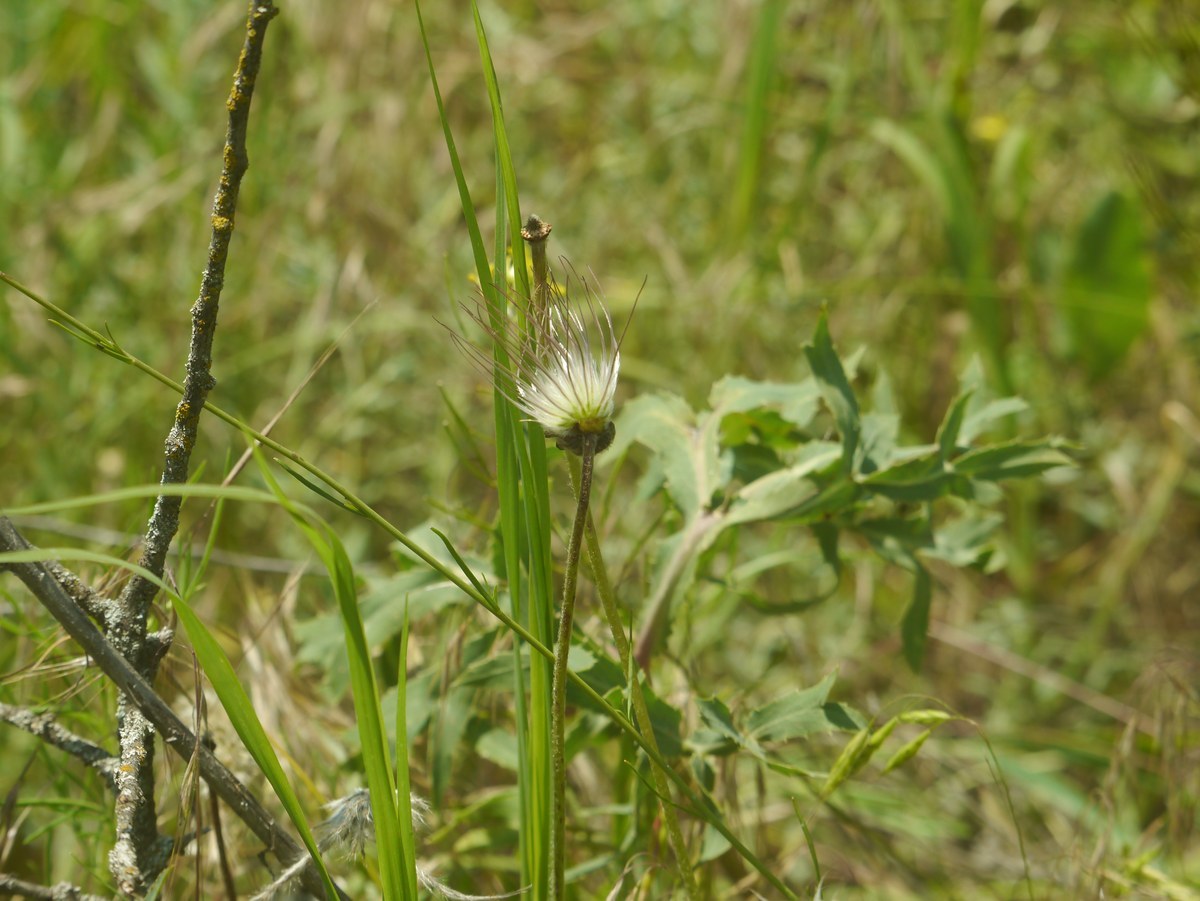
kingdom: Plantae
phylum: Tracheophyta
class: Magnoliopsida
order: Ranunculales
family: Ranunculaceae
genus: Pulsatilla
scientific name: Pulsatilla pratensis
